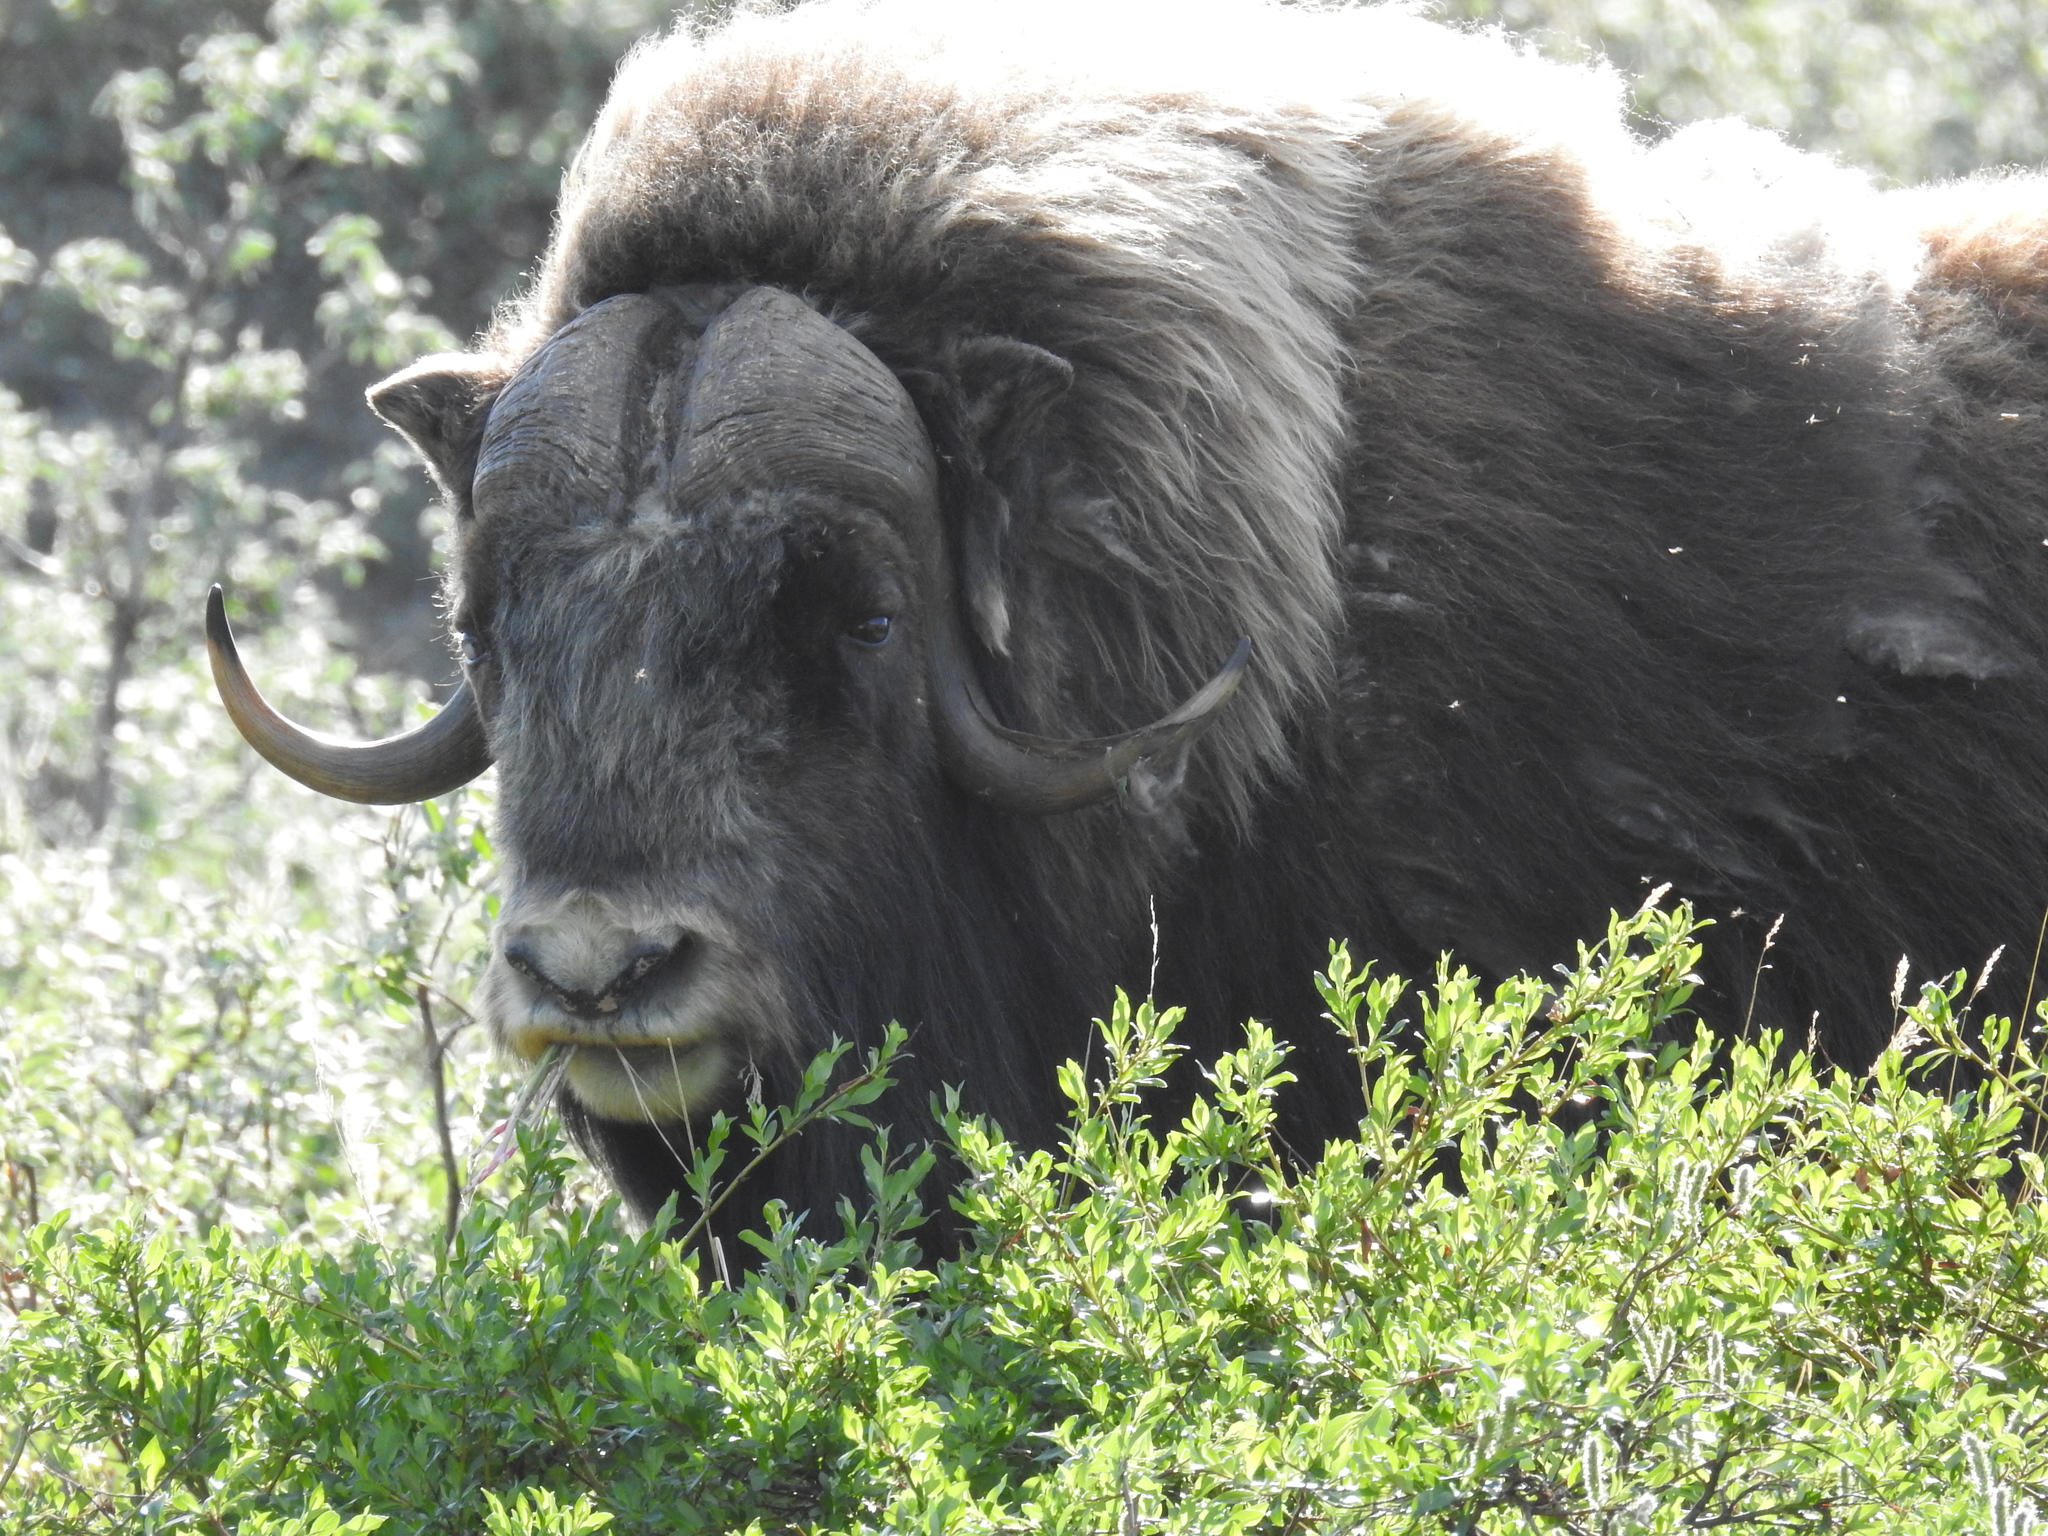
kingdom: Animalia
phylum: Chordata
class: Mammalia
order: Artiodactyla
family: Bovidae
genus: Ovibos
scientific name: Ovibos moschatus
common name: Muskox
